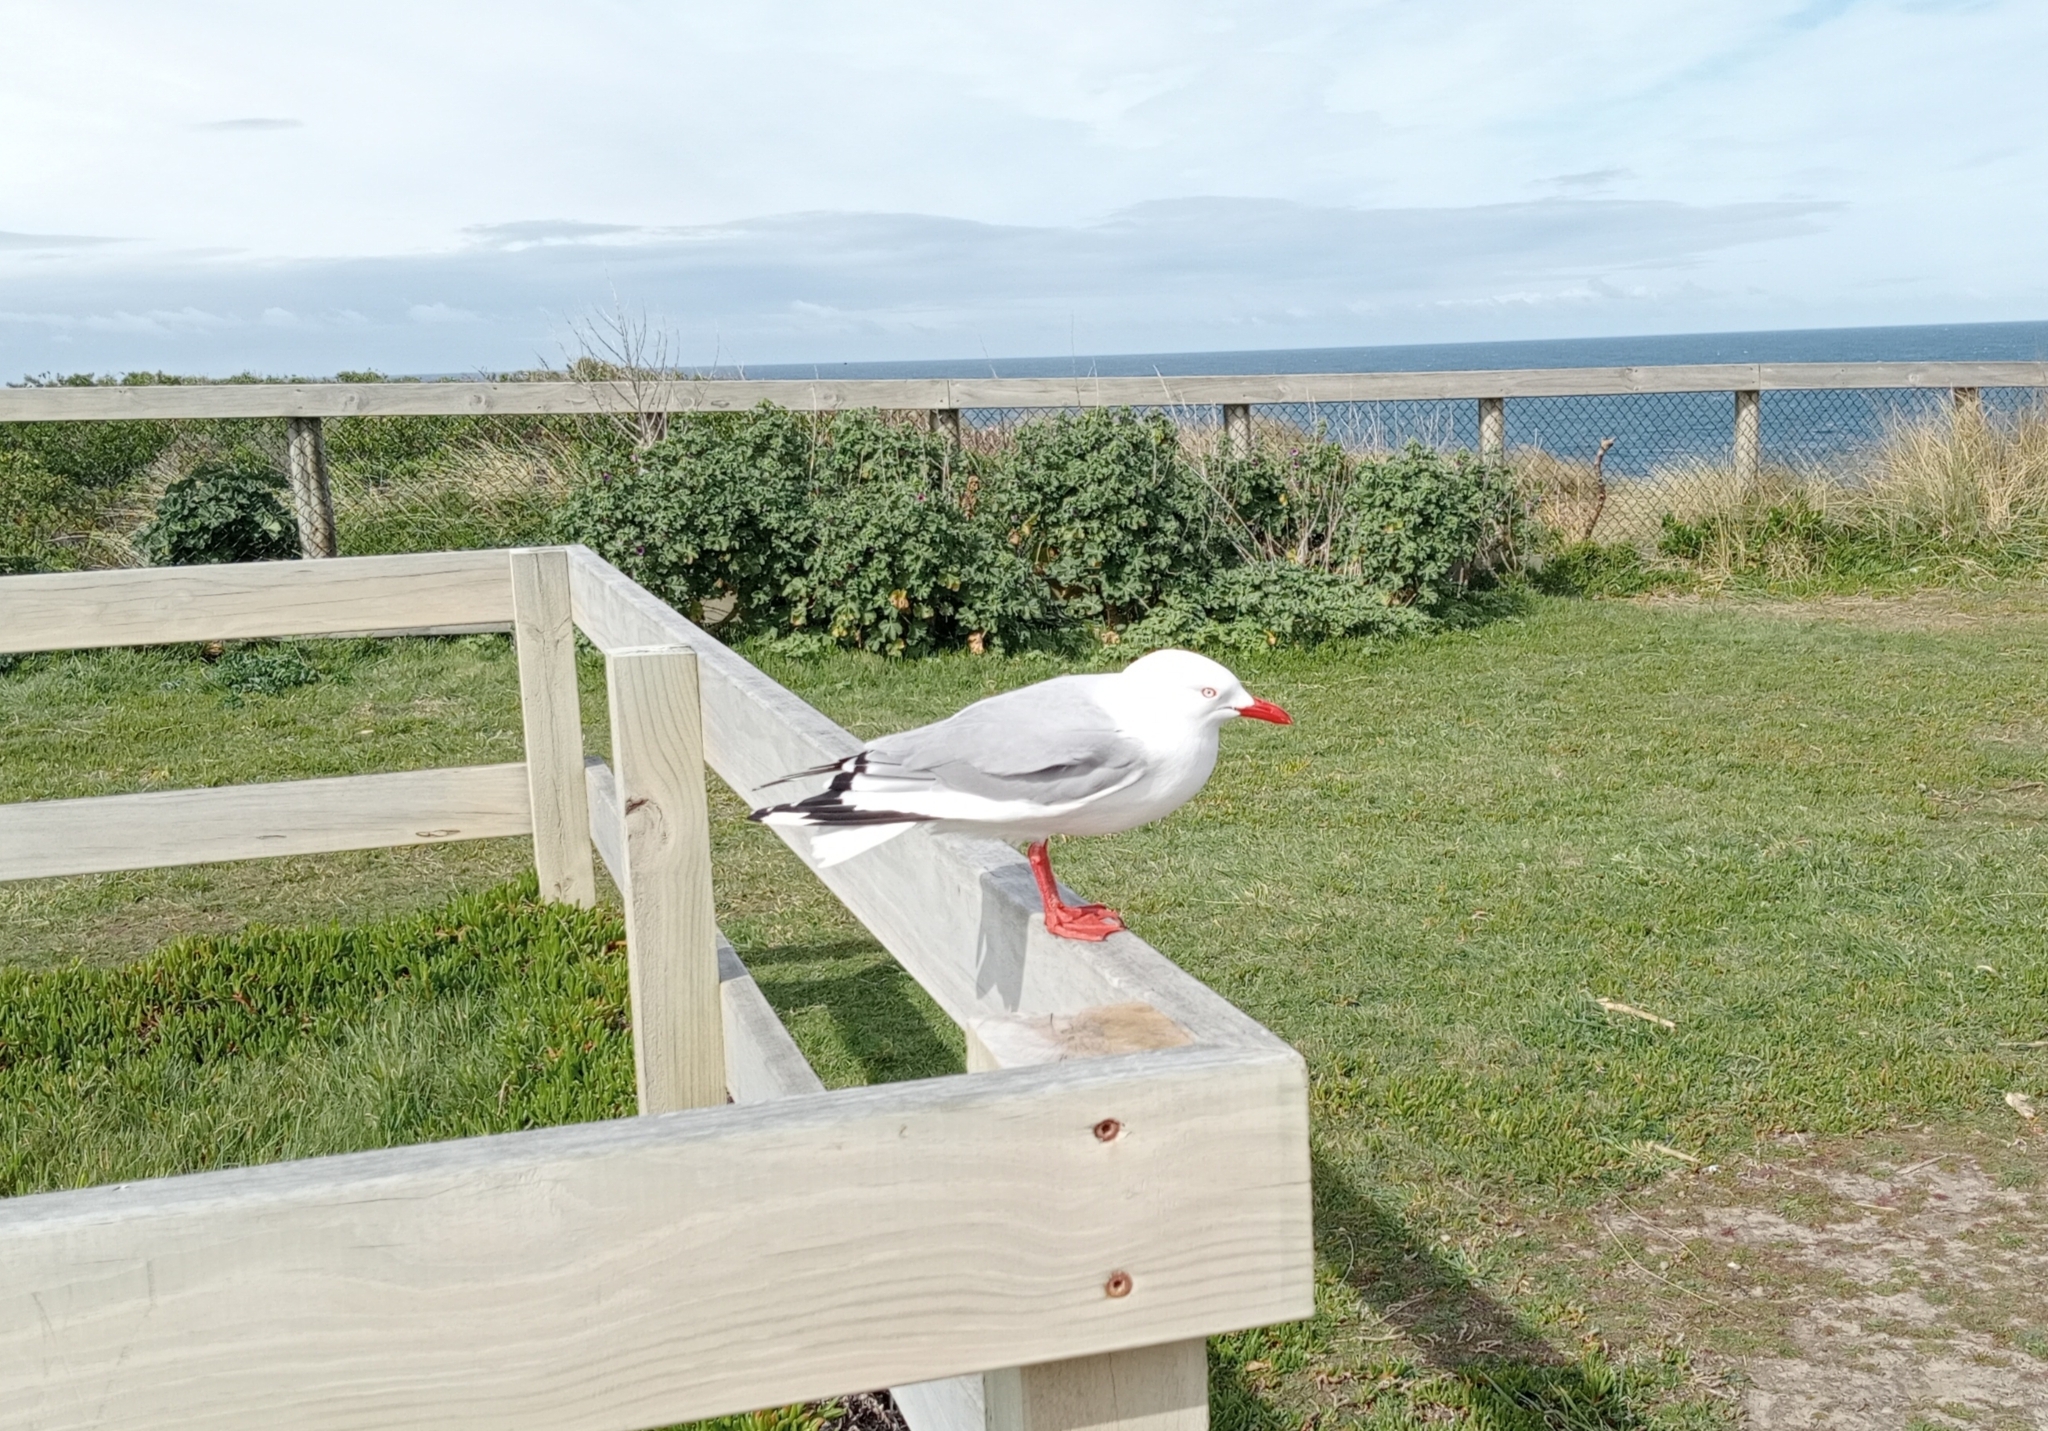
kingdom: Animalia
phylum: Chordata
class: Aves
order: Charadriiformes
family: Laridae
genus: Chroicocephalus
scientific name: Chroicocephalus novaehollandiae
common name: Silver gull
